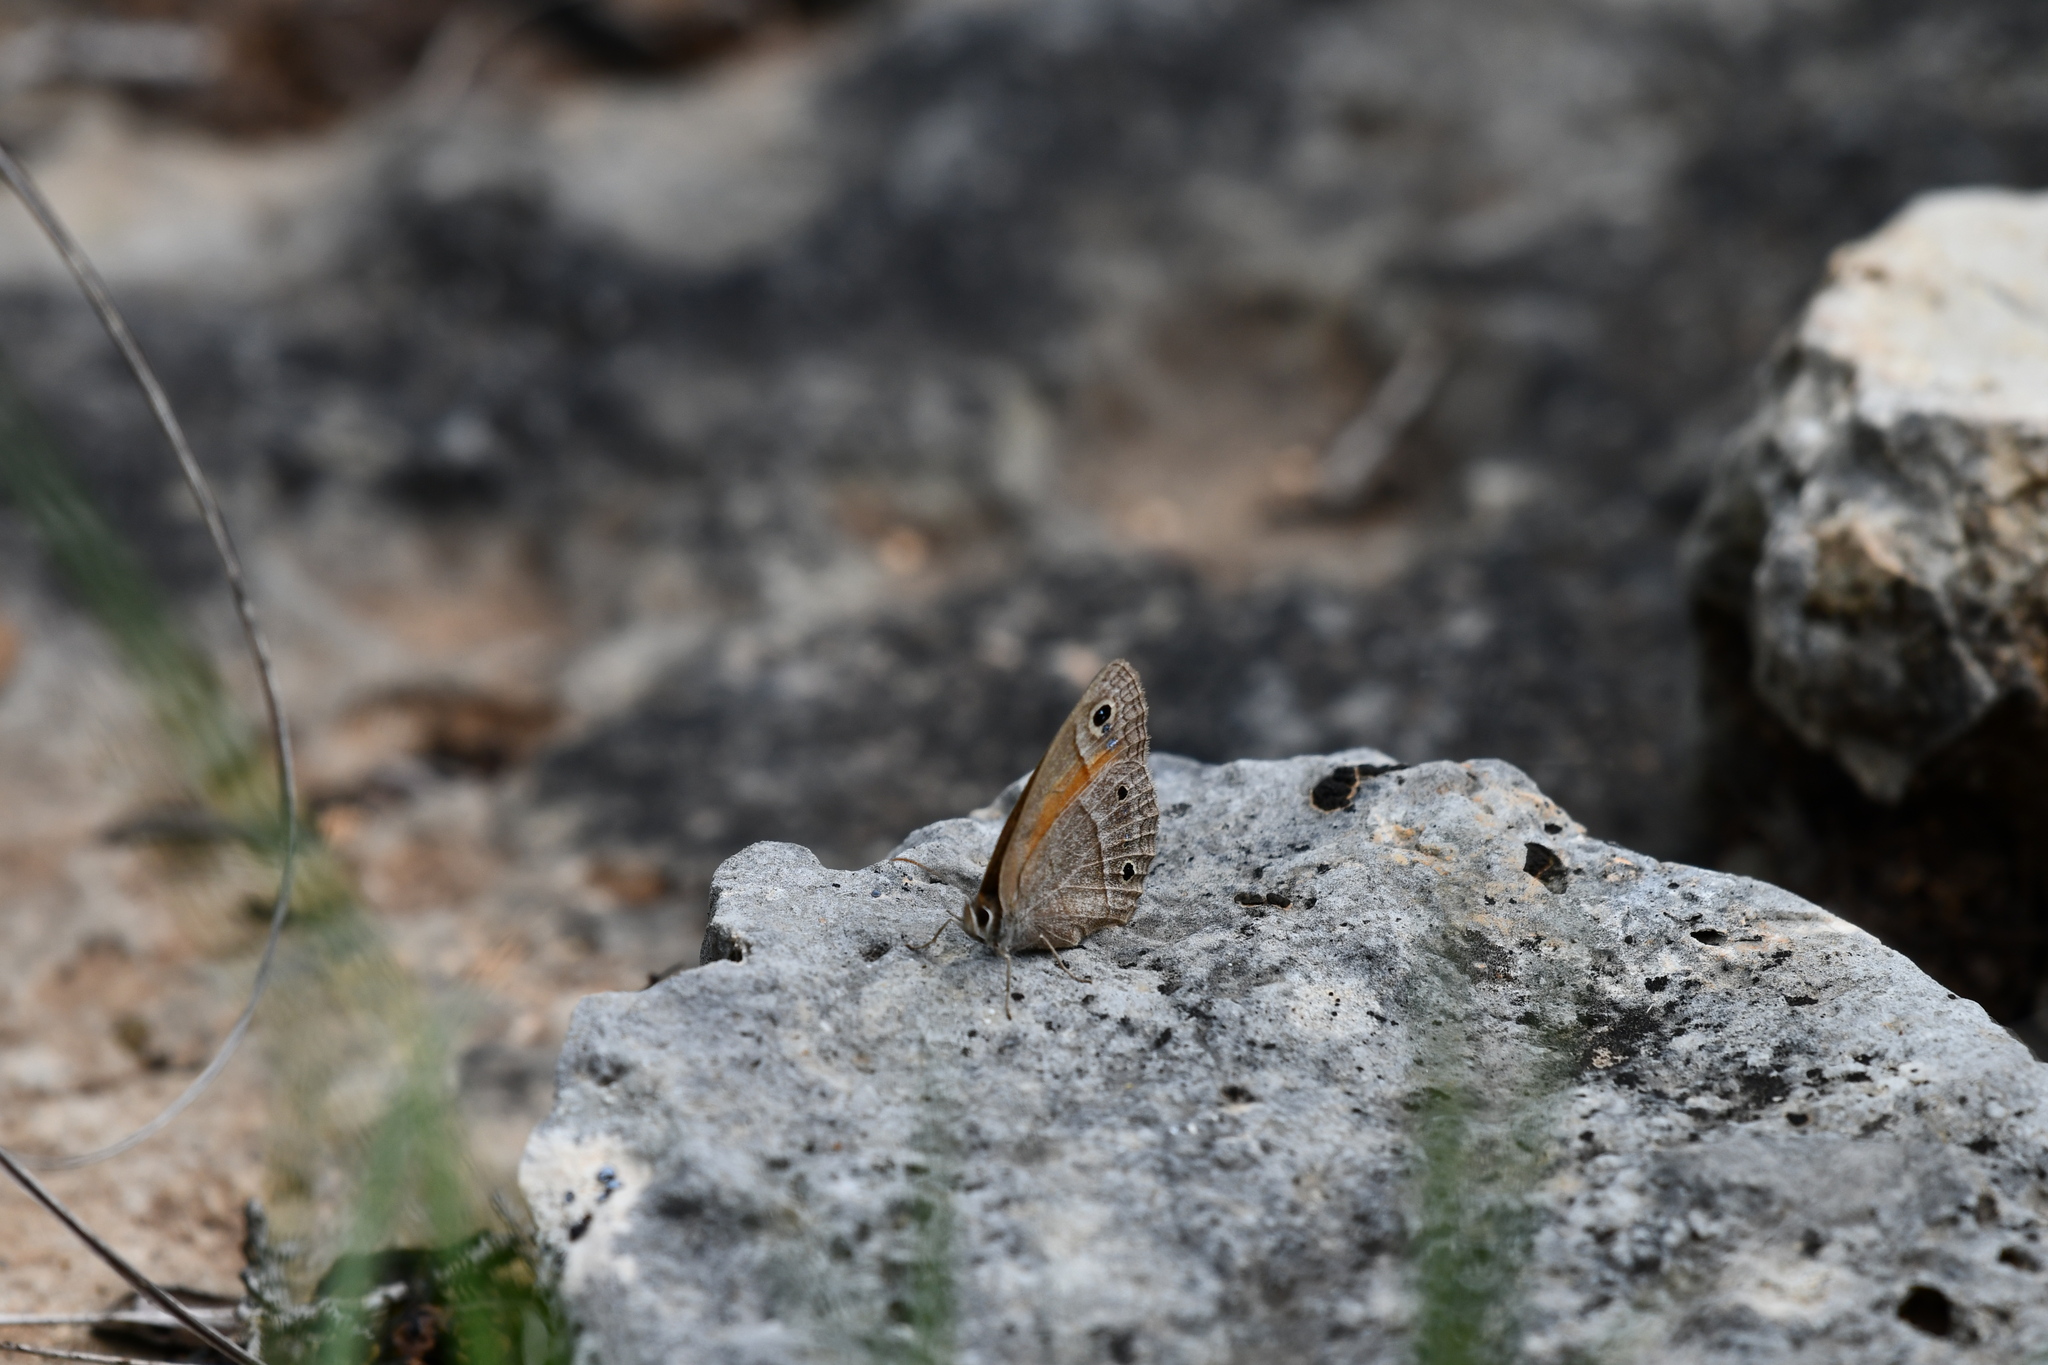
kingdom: Animalia
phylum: Arthropoda
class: Insecta
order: Lepidoptera
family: Nymphalidae
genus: Euptychia
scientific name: Euptychia Cissia rubricata
